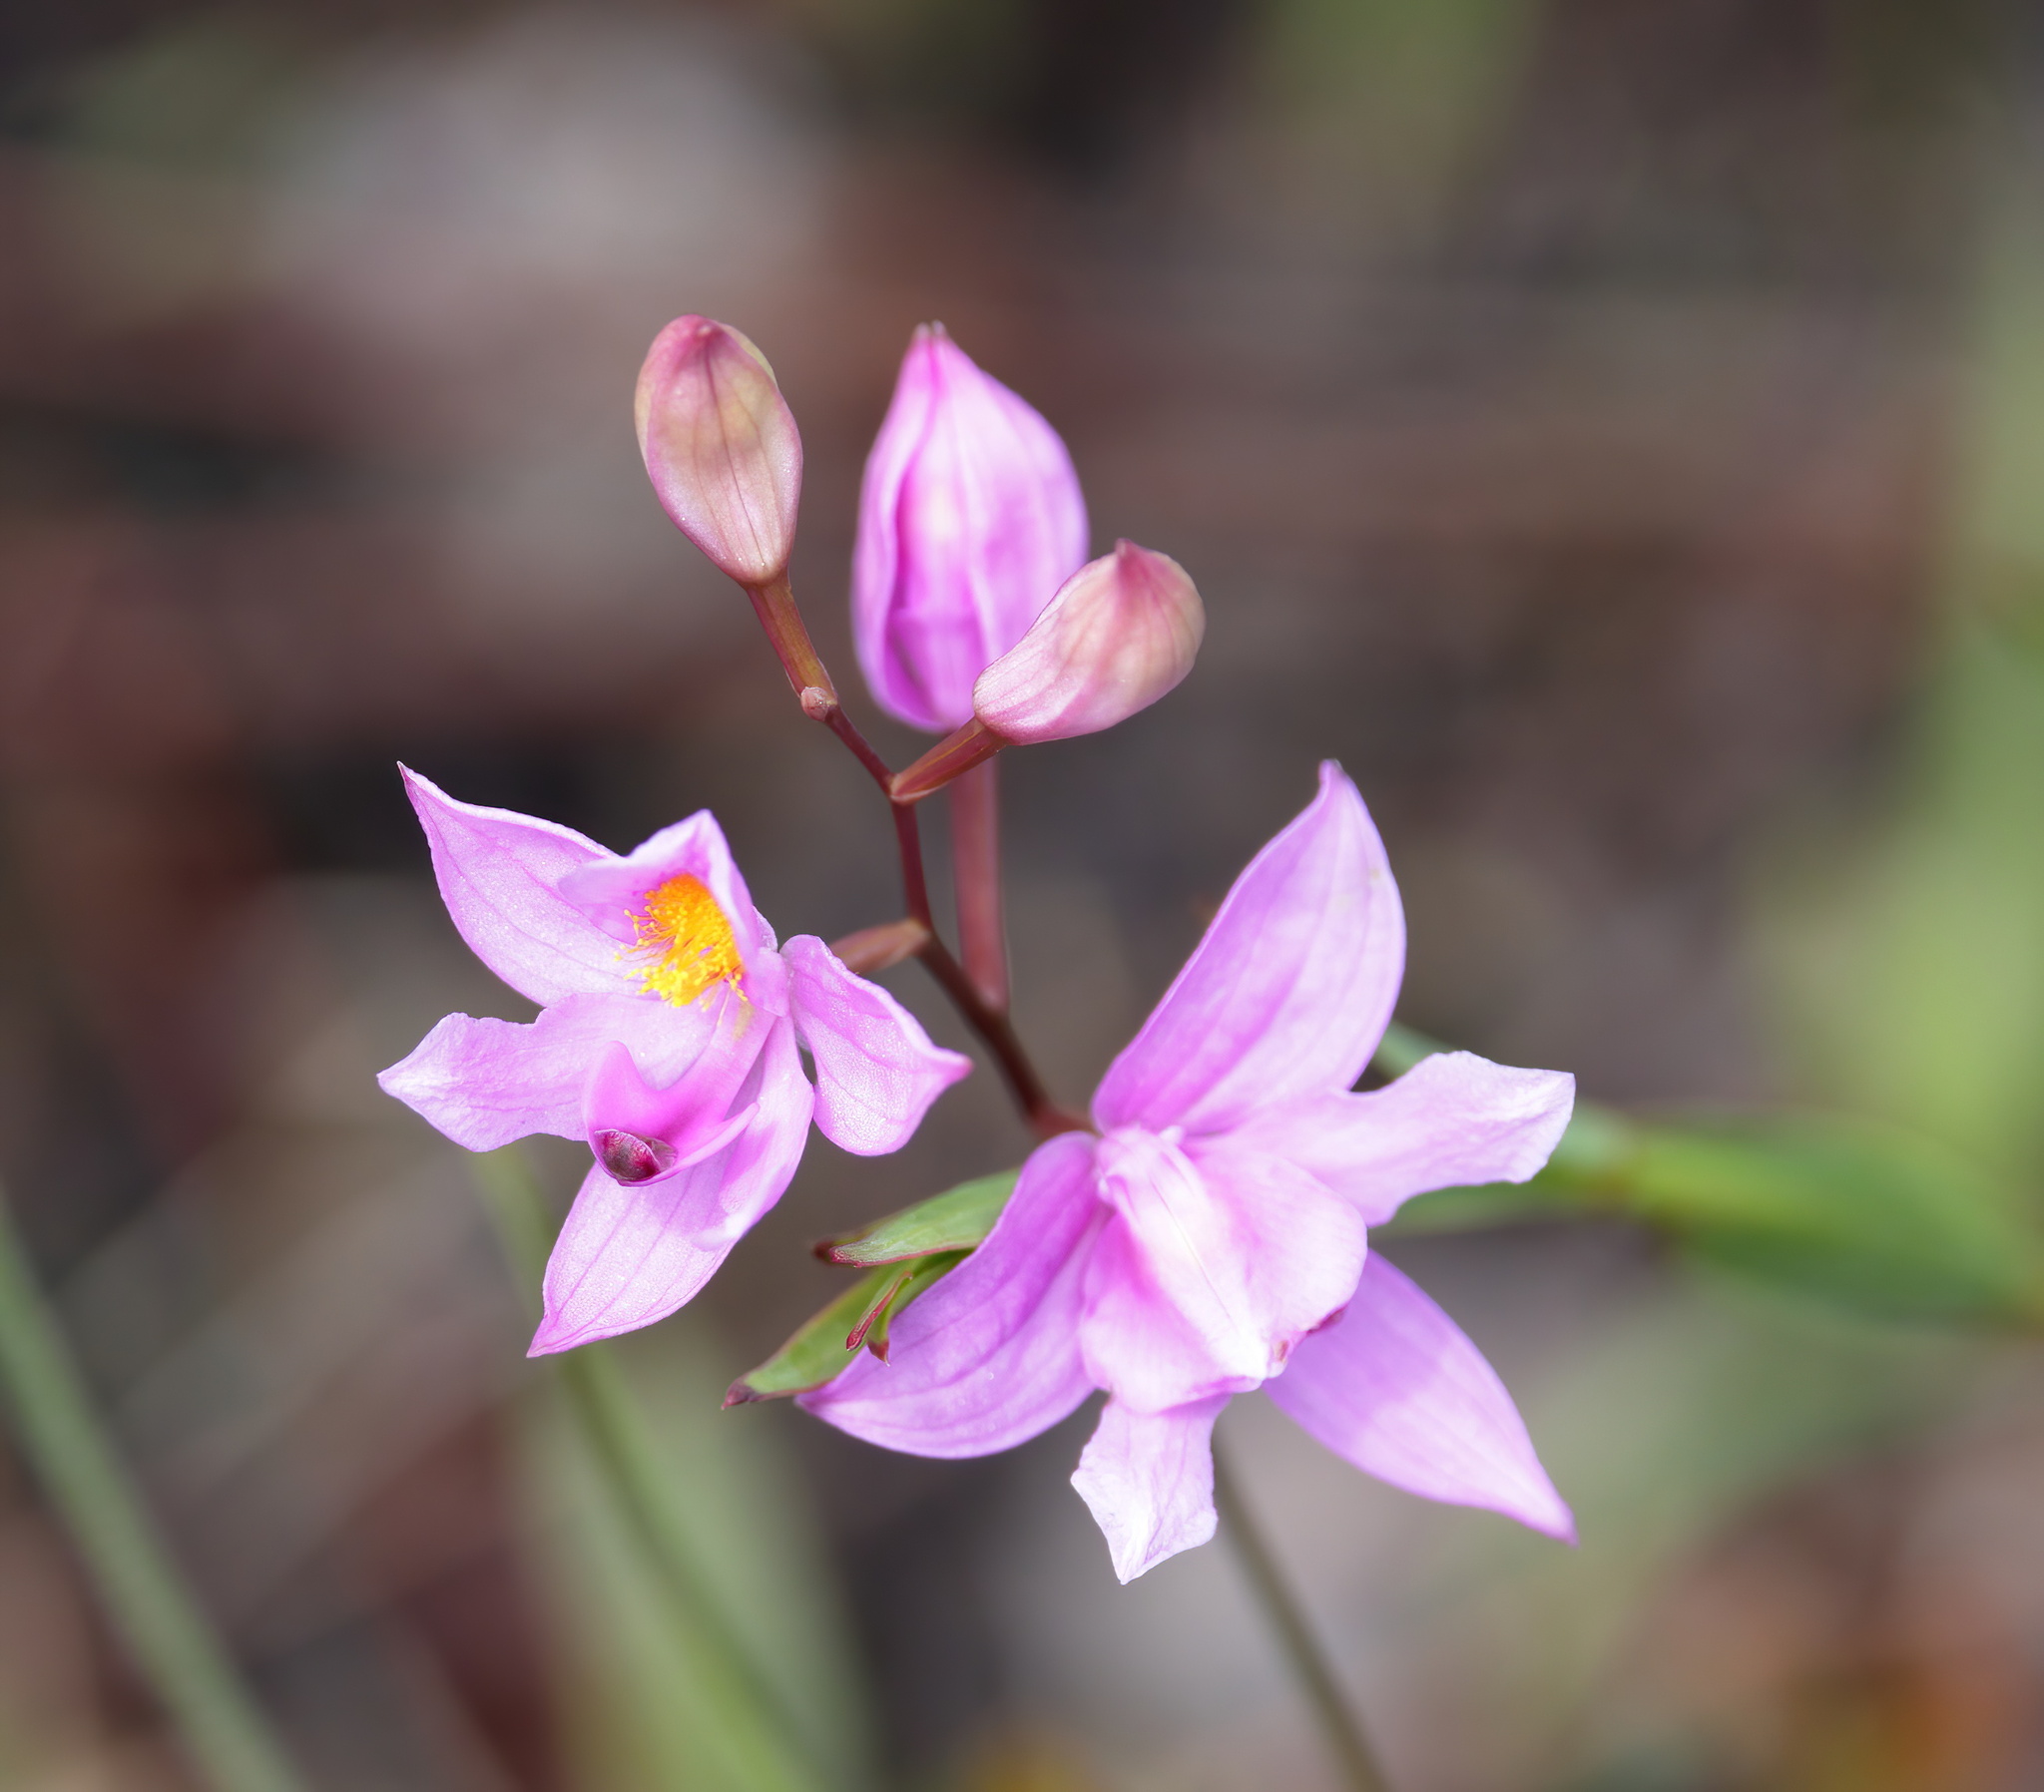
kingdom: Plantae
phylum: Tracheophyta
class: Liliopsida
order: Asparagales
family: Orchidaceae
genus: Calopogon
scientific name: Calopogon barbatus
